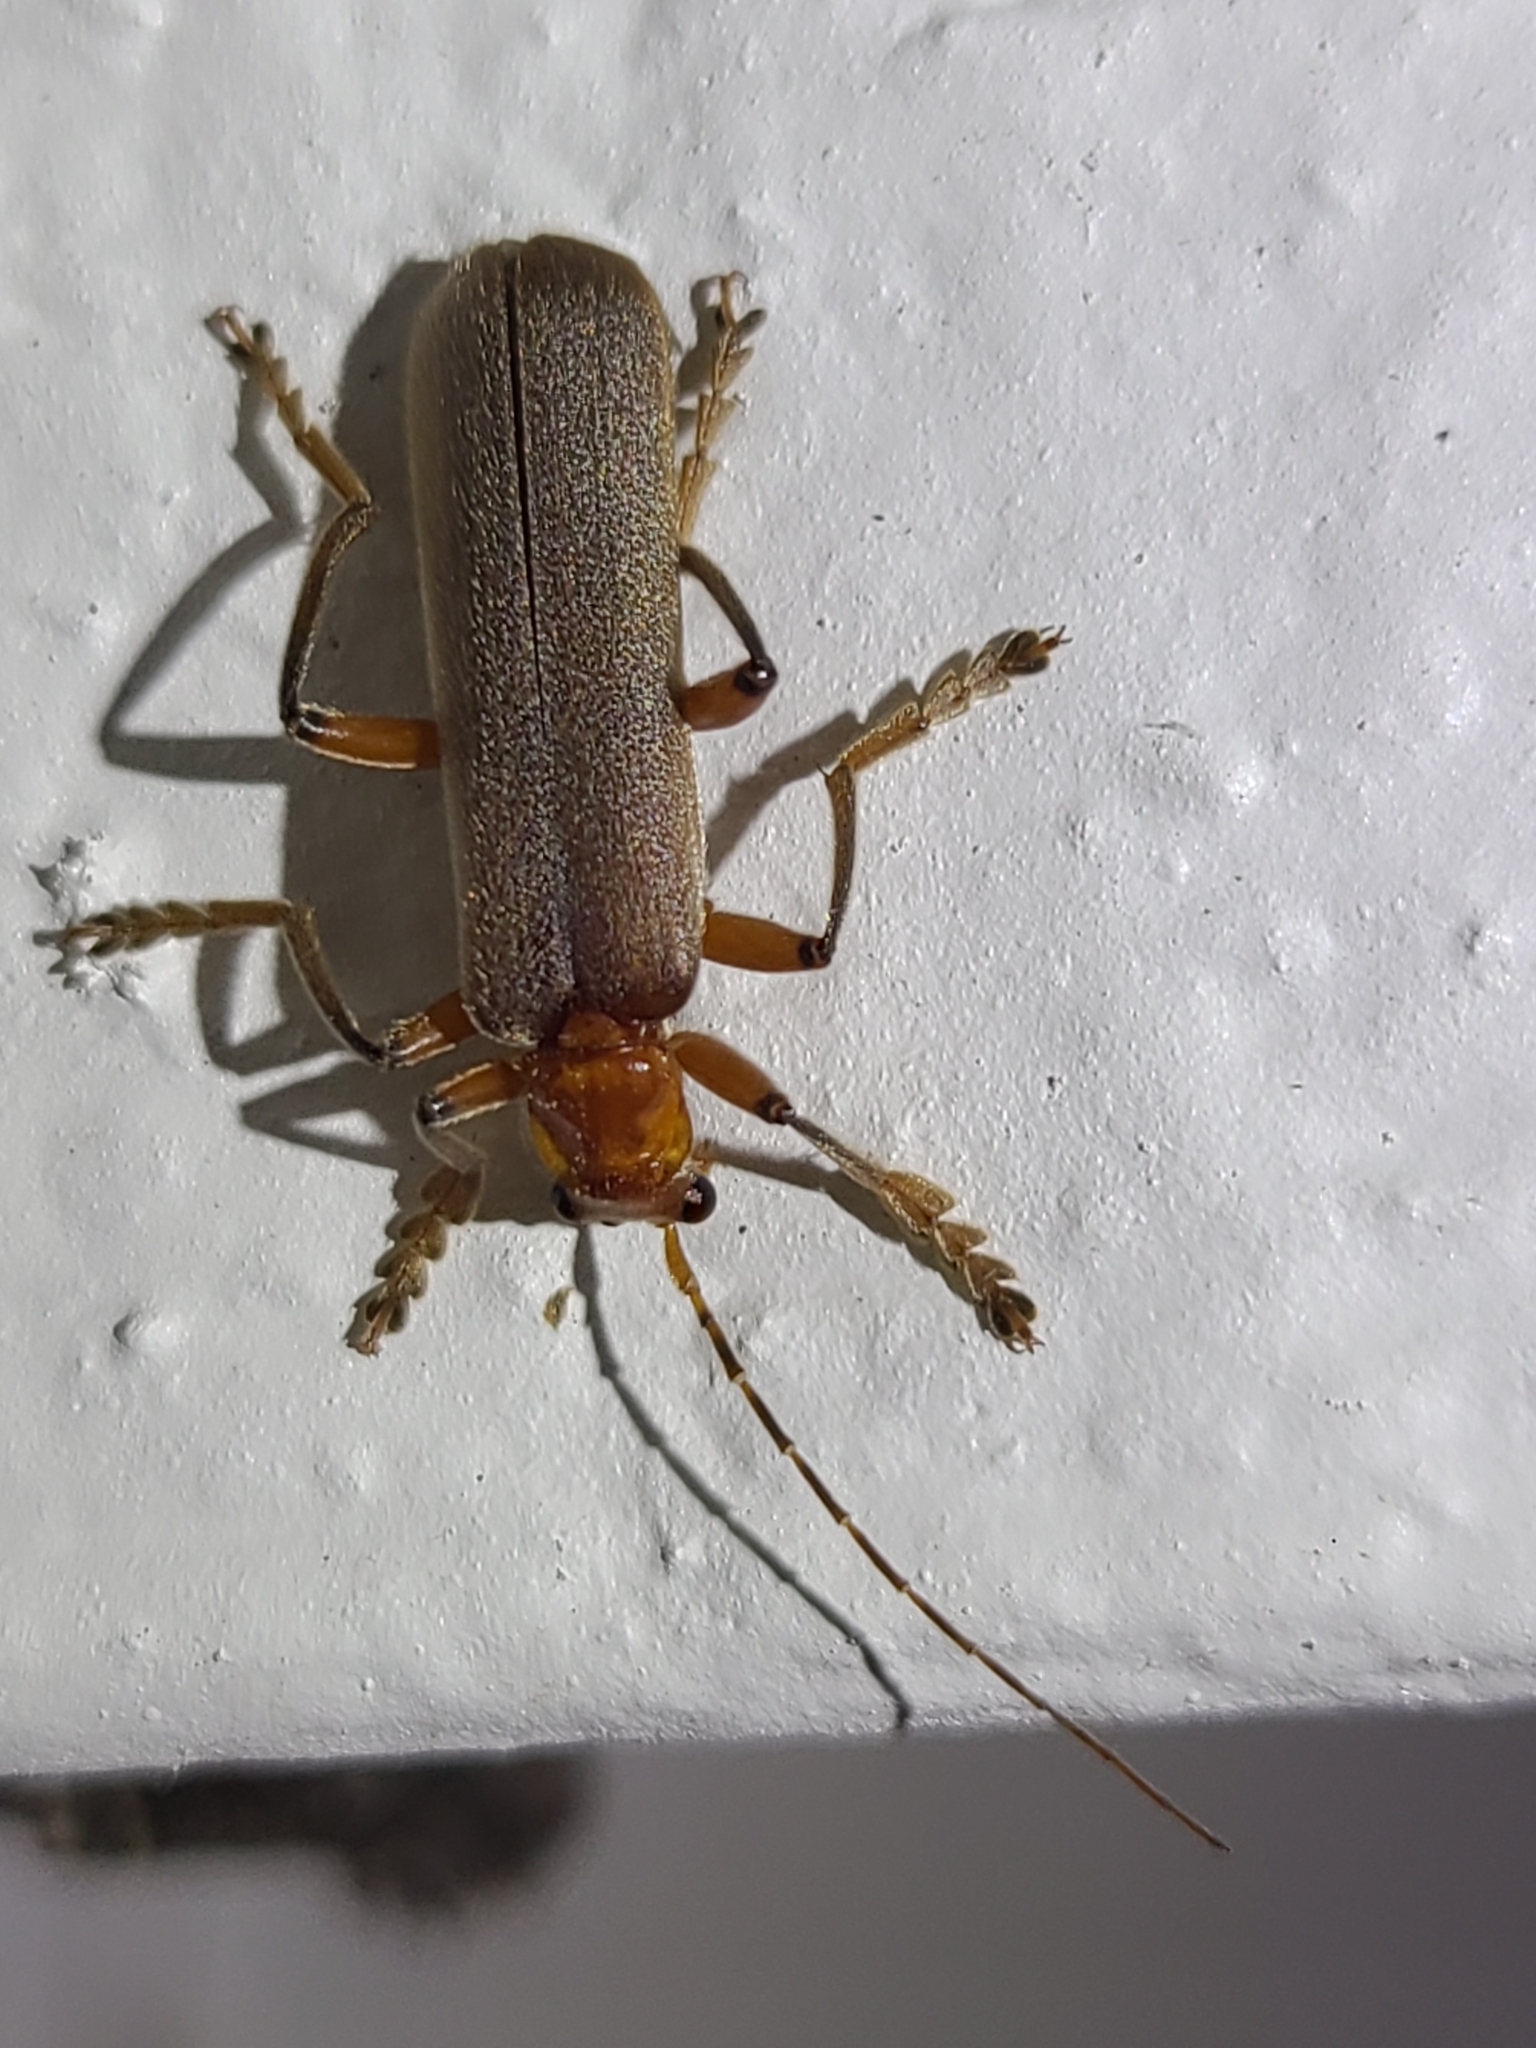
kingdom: Animalia
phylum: Arthropoda
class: Insecta
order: Coleoptera
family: Cantharidae
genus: Pacificanthia
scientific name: Pacificanthia consors
